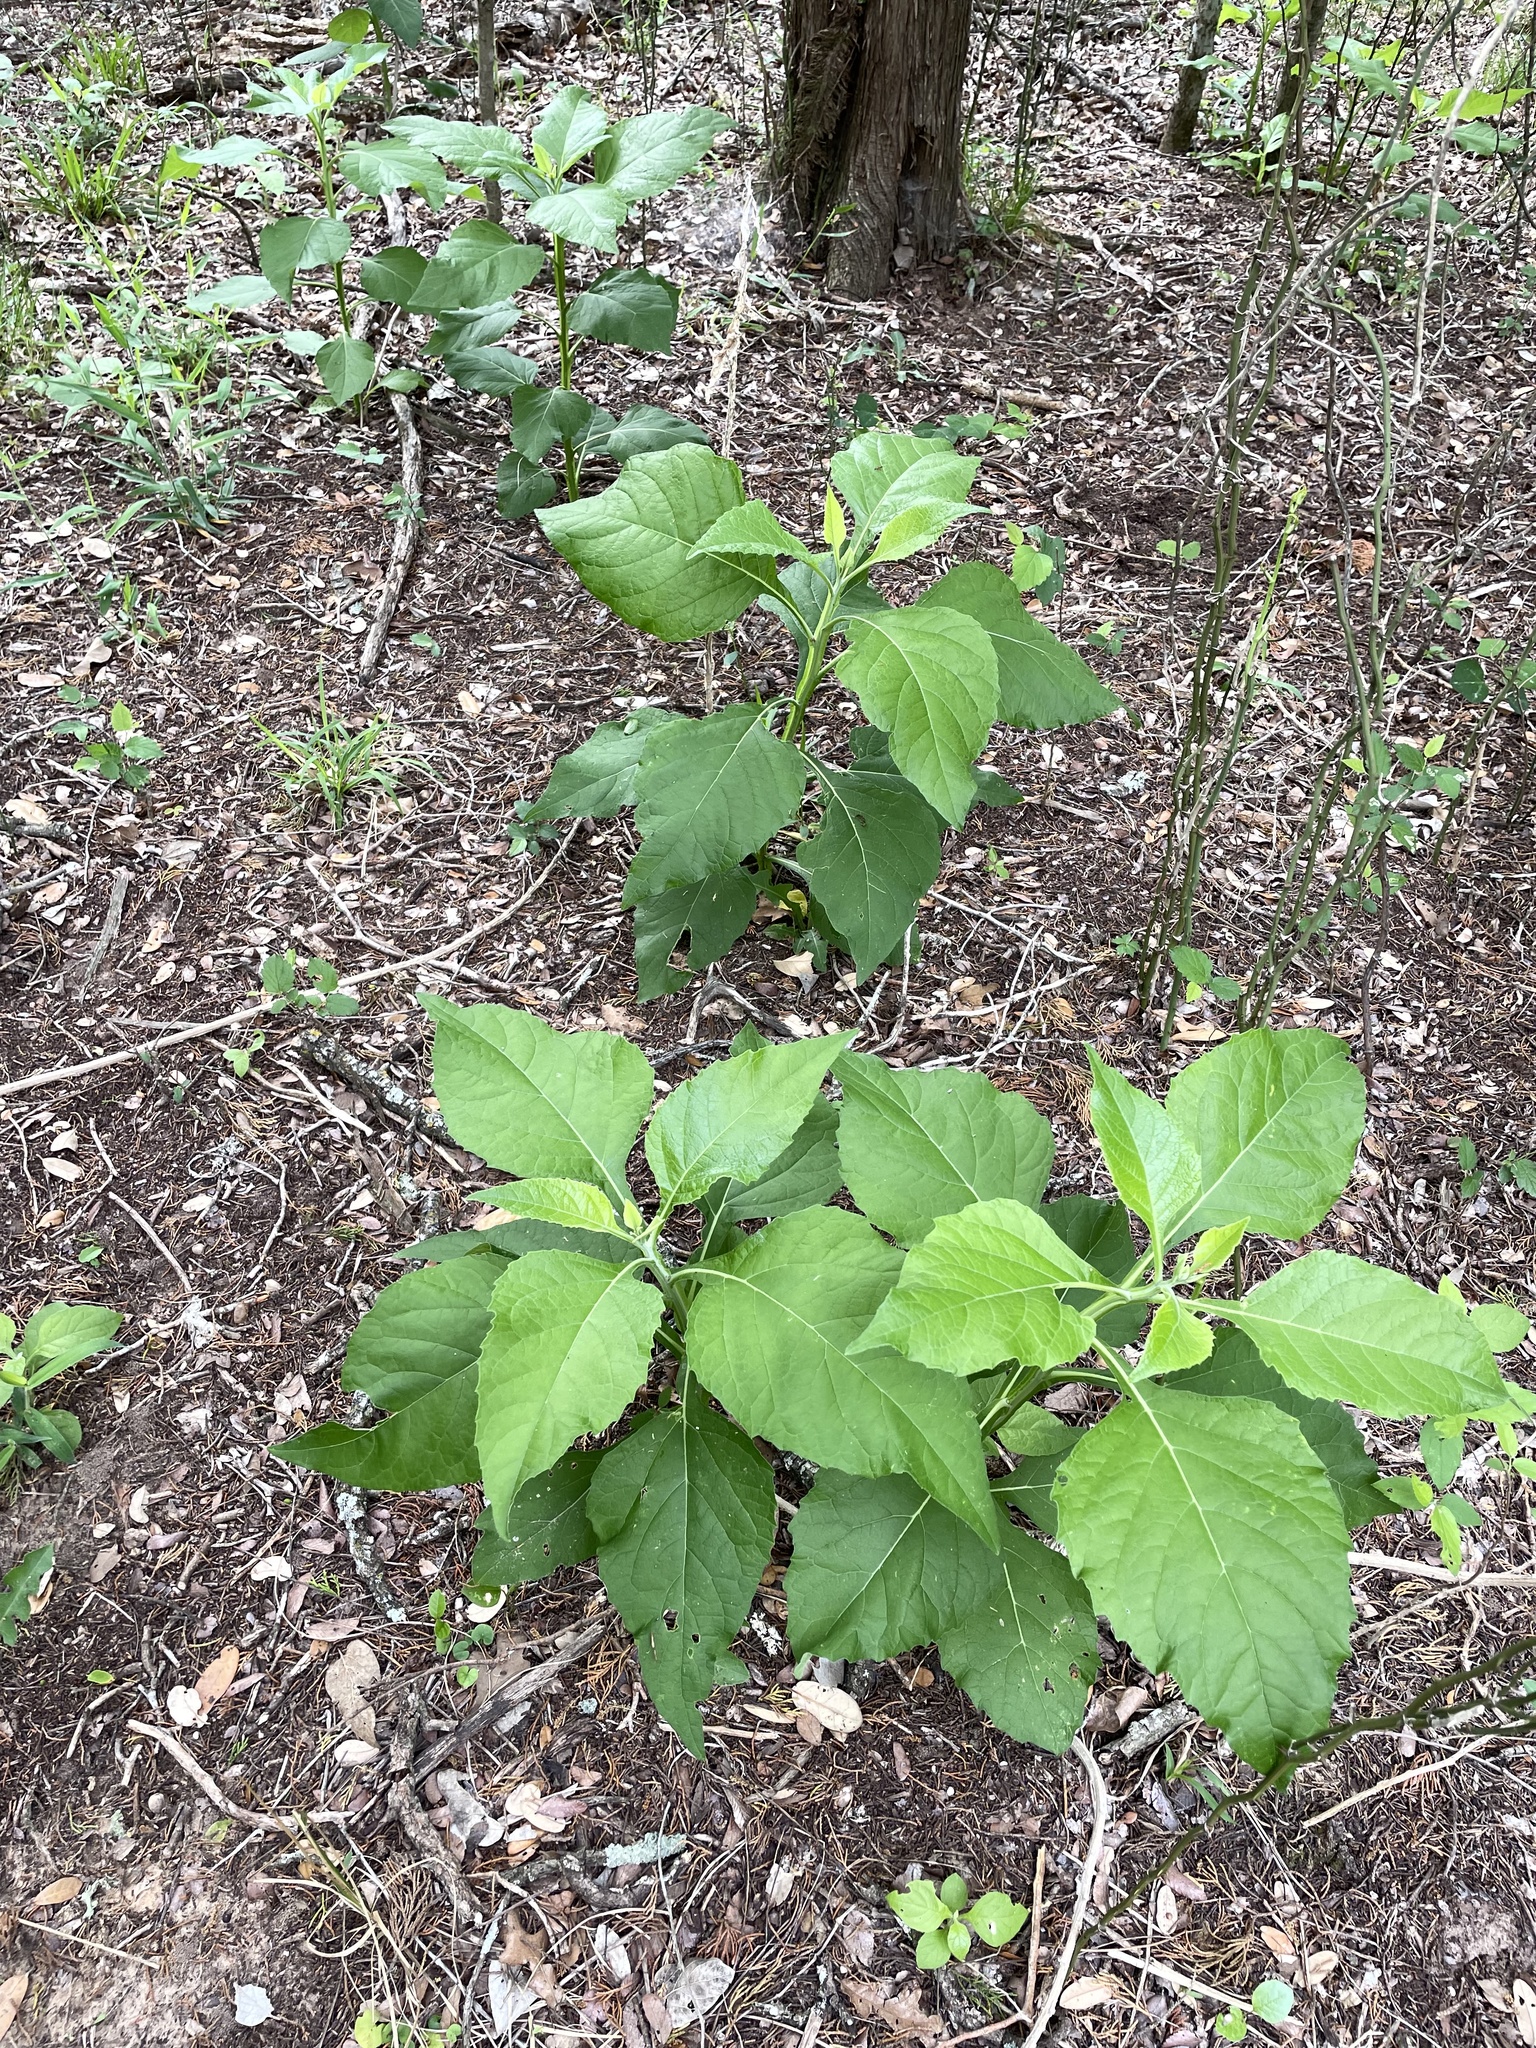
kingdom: Plantae
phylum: Tracheophyta
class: Magnoliopsida
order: Asterales
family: Asteraceae
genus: Verbesina
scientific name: Verbesina virginica
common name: Frostweed
